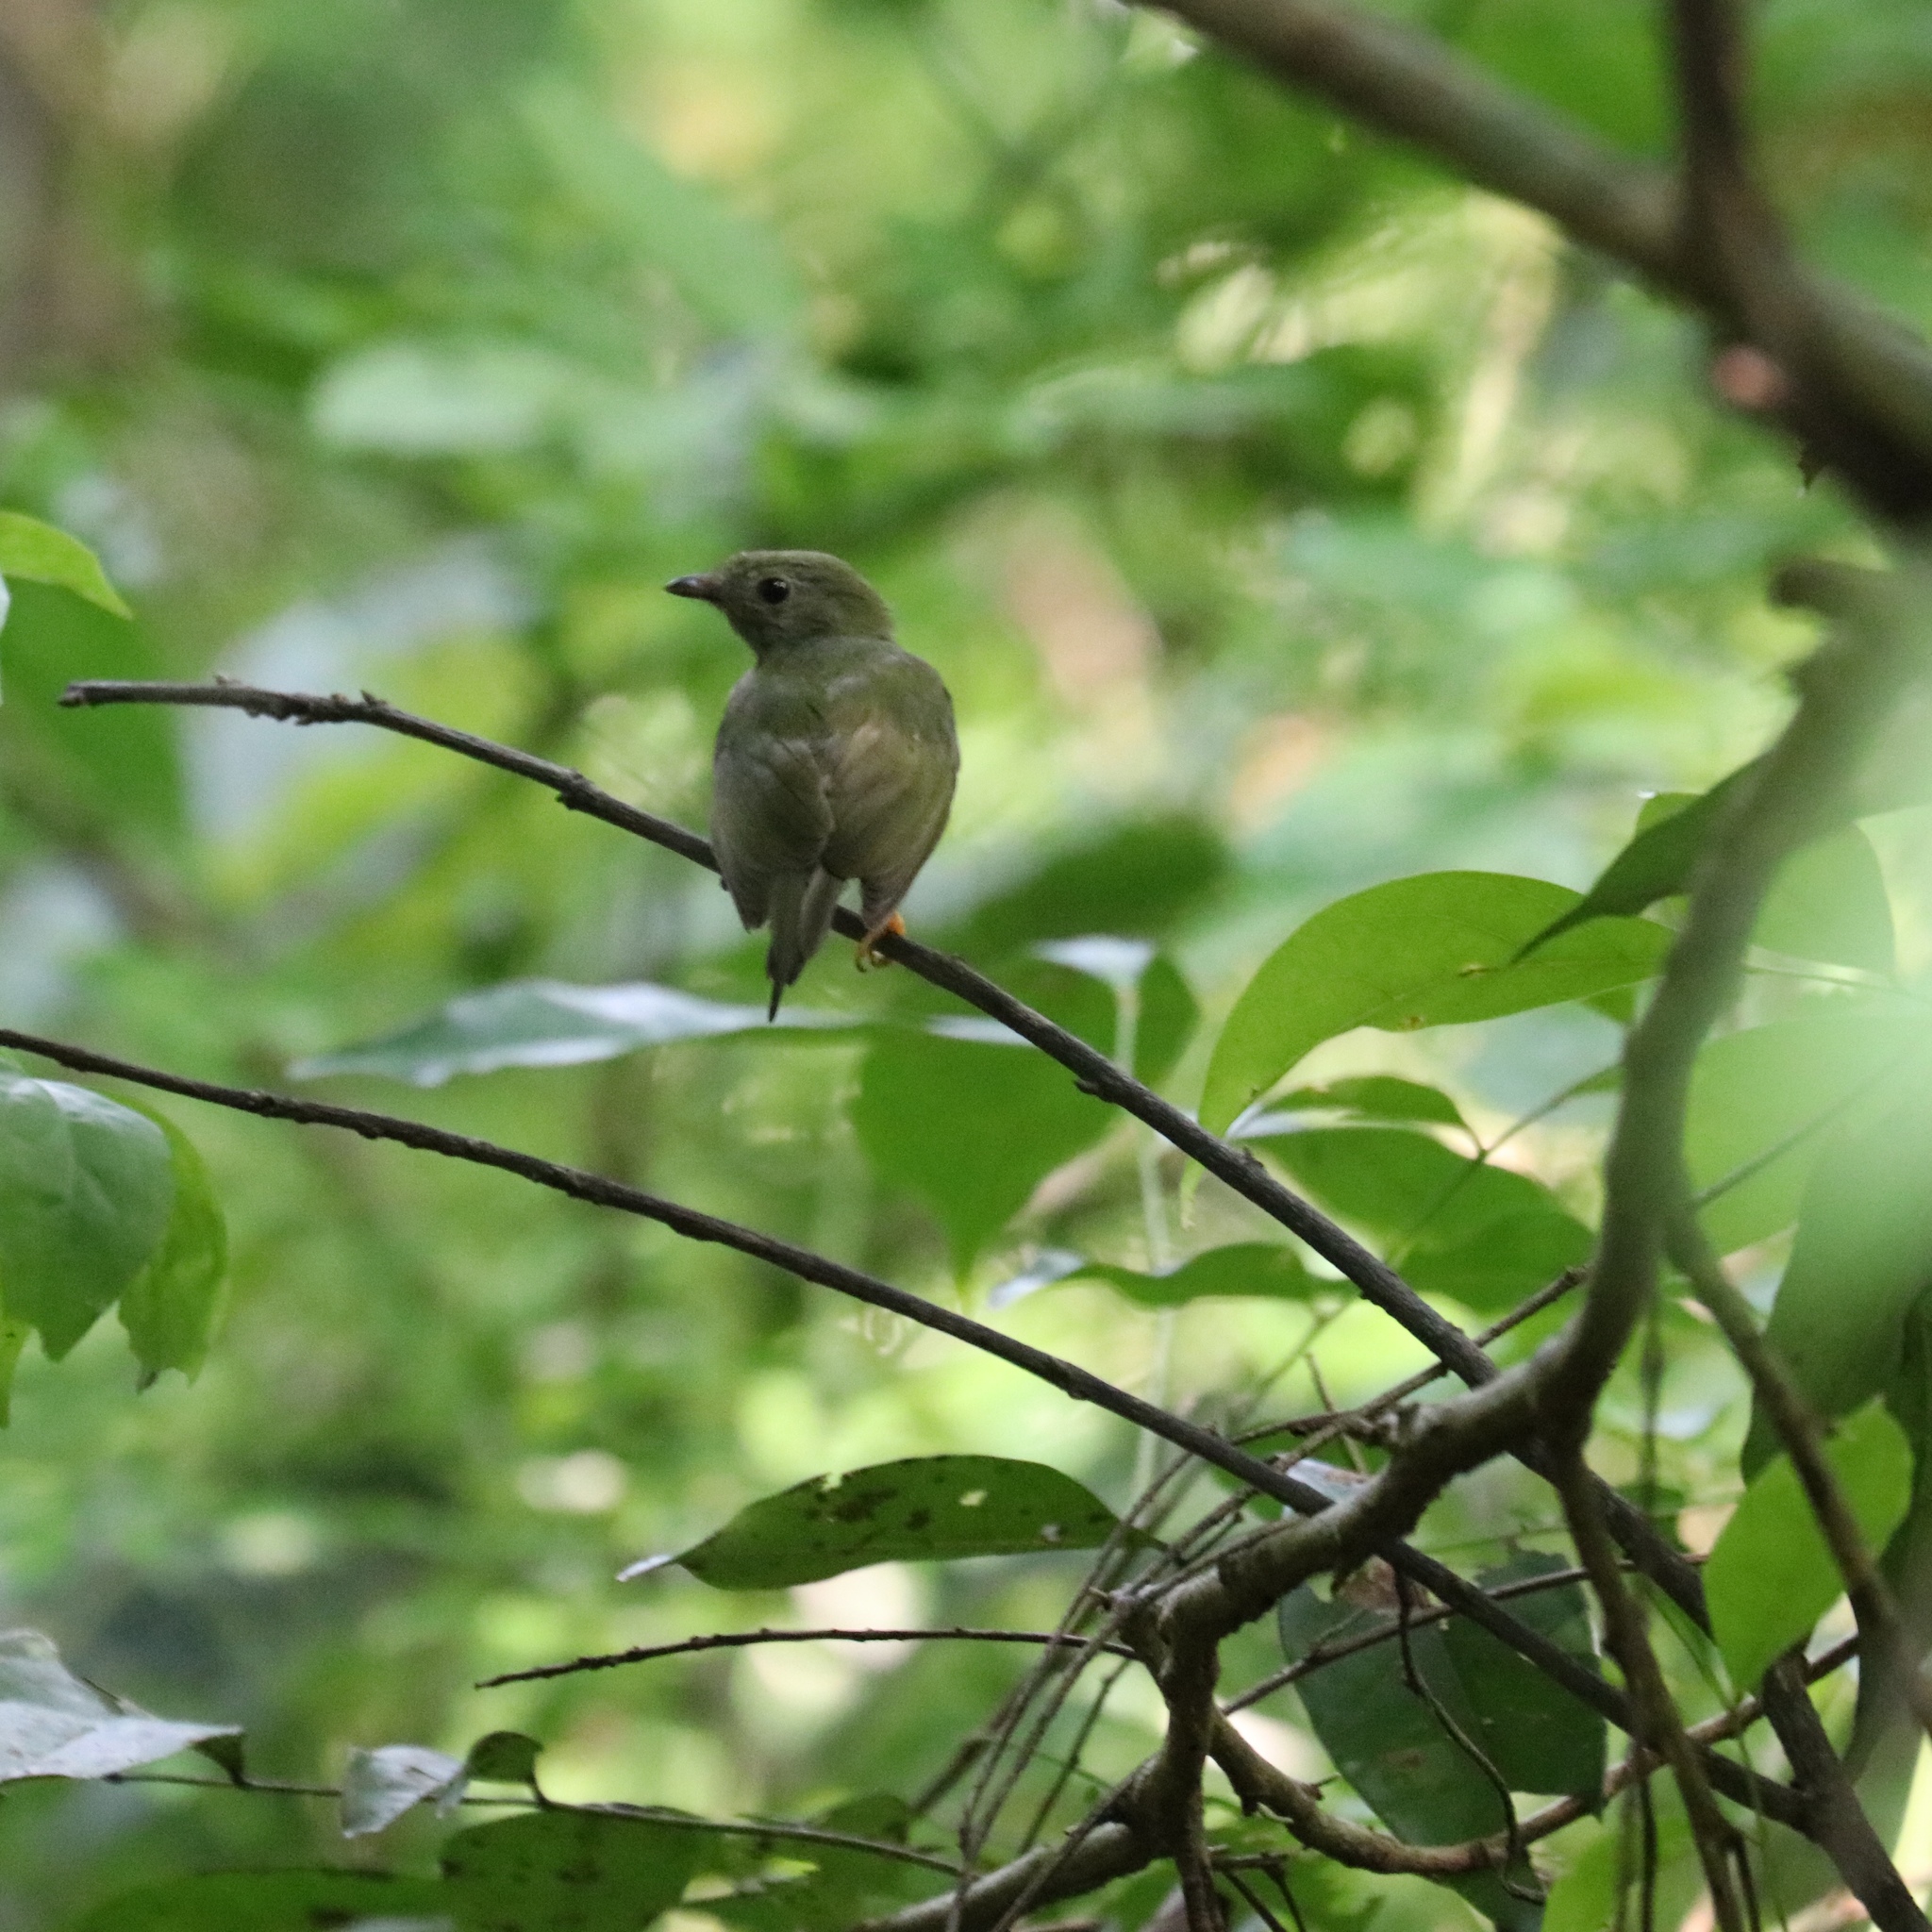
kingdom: Animalia
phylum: Chordata
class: Aves
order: Passeriformes
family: Pipridae
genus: Chiroxiphia
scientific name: Chiroxiphia lanceolata
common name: Lance-tailed manakin
